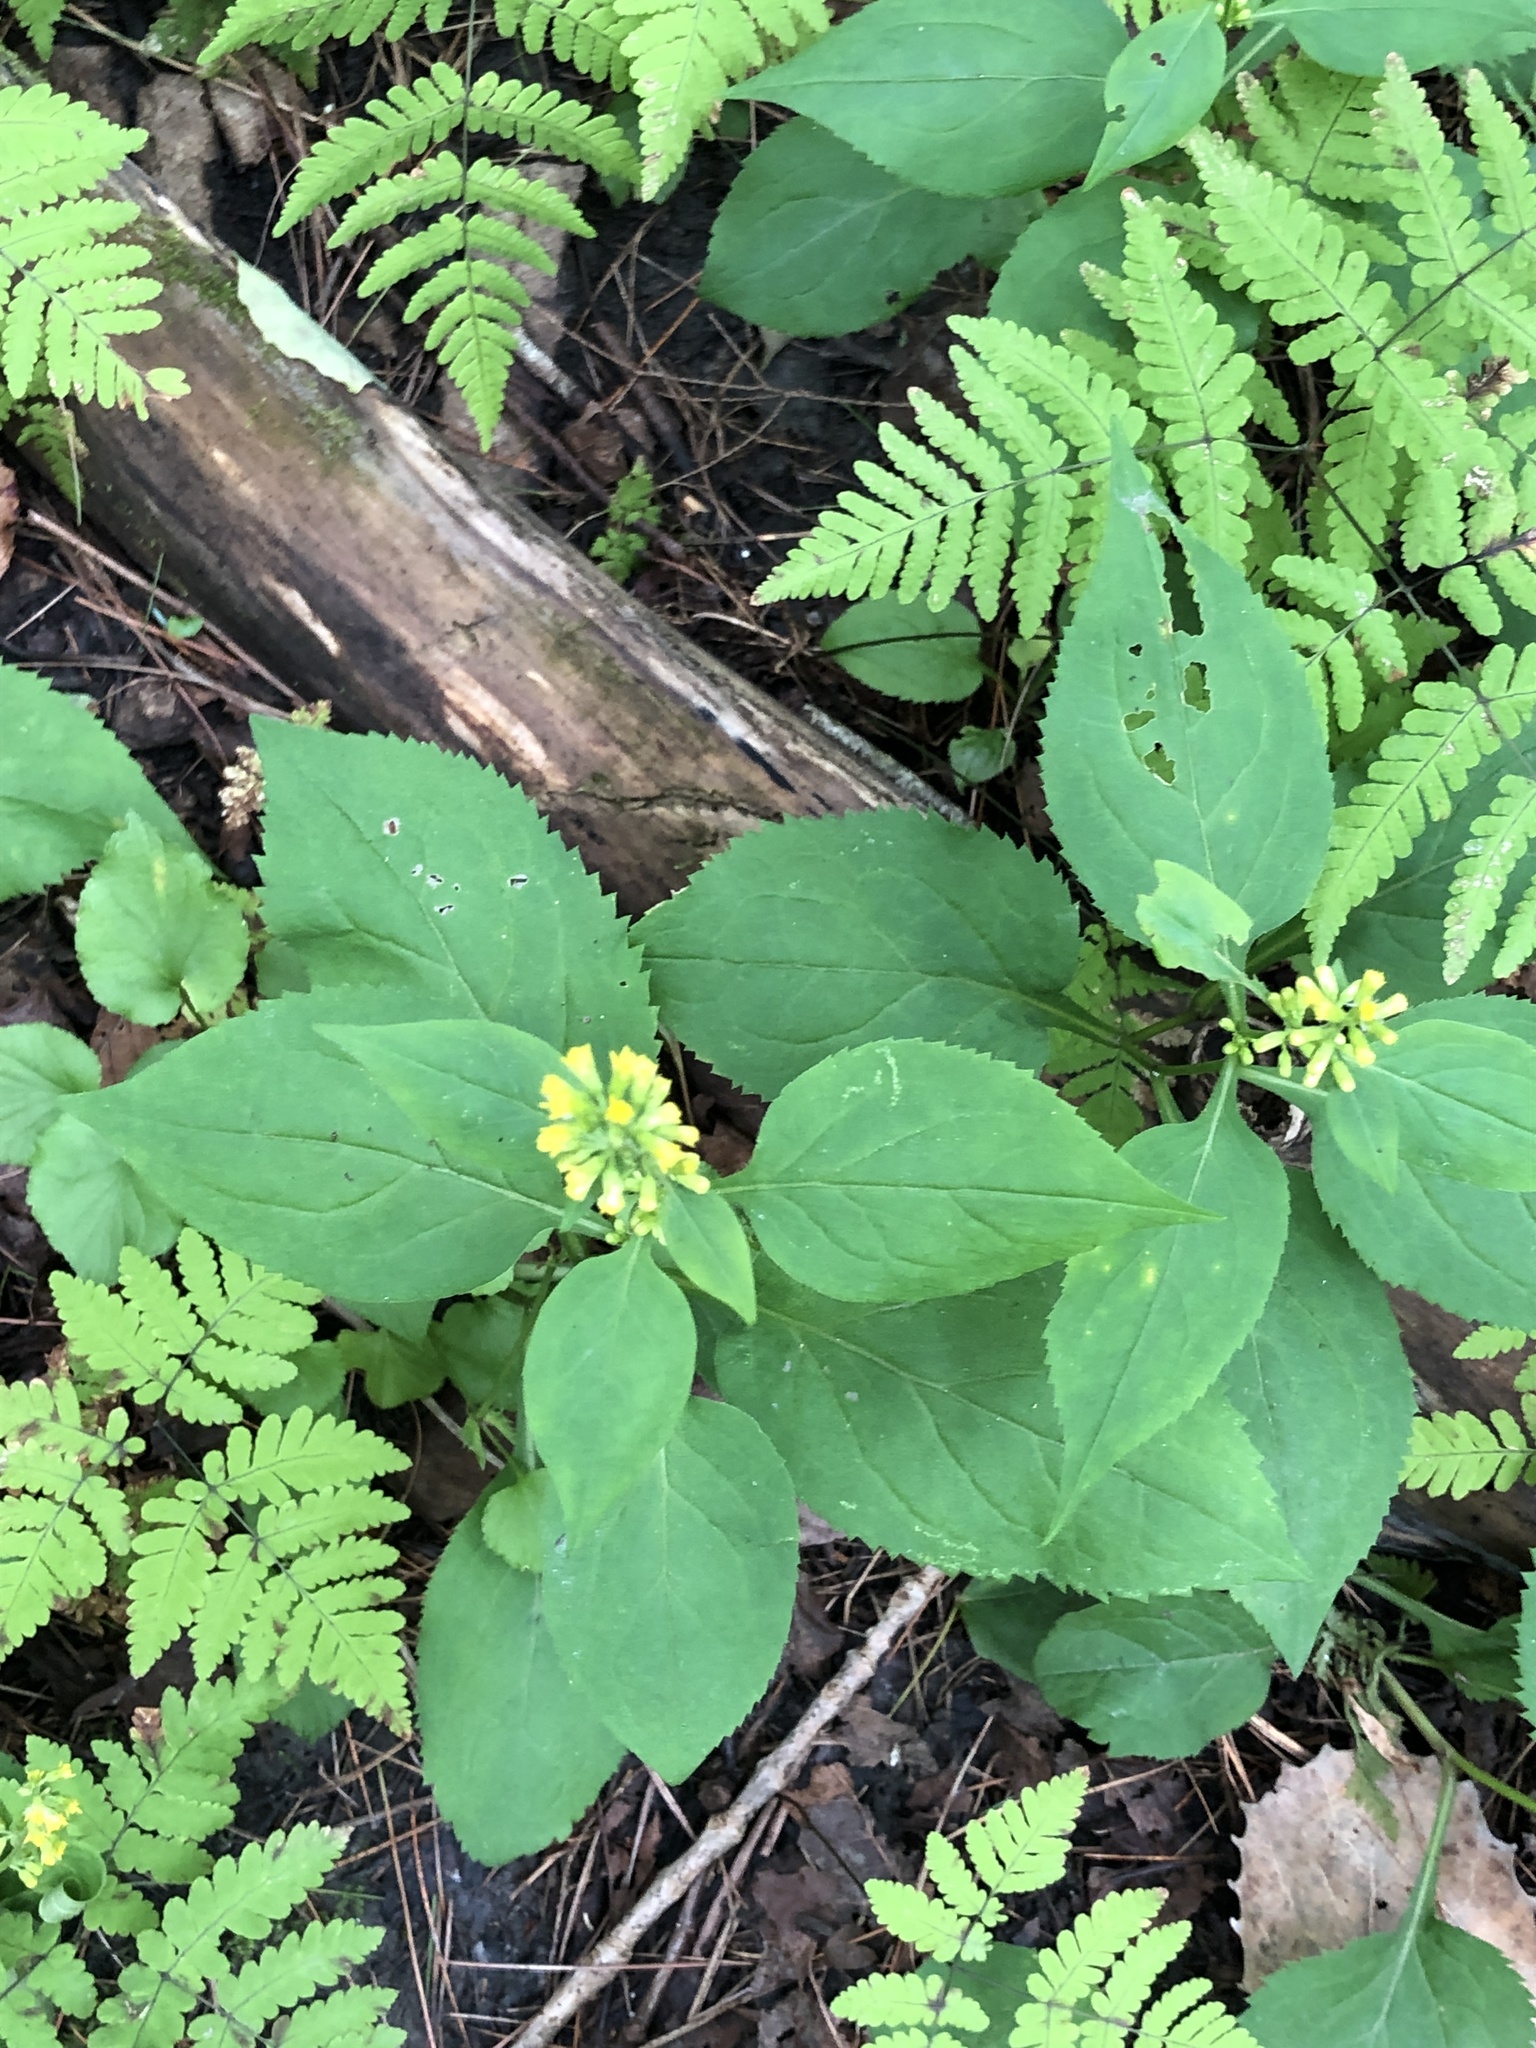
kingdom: Plantae
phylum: Tracheophyta
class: Magnoliopsida
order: Asterales
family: Asteraceae
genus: Solidago
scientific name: Solidago flexicaulis
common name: Zig-zag goldenrod
